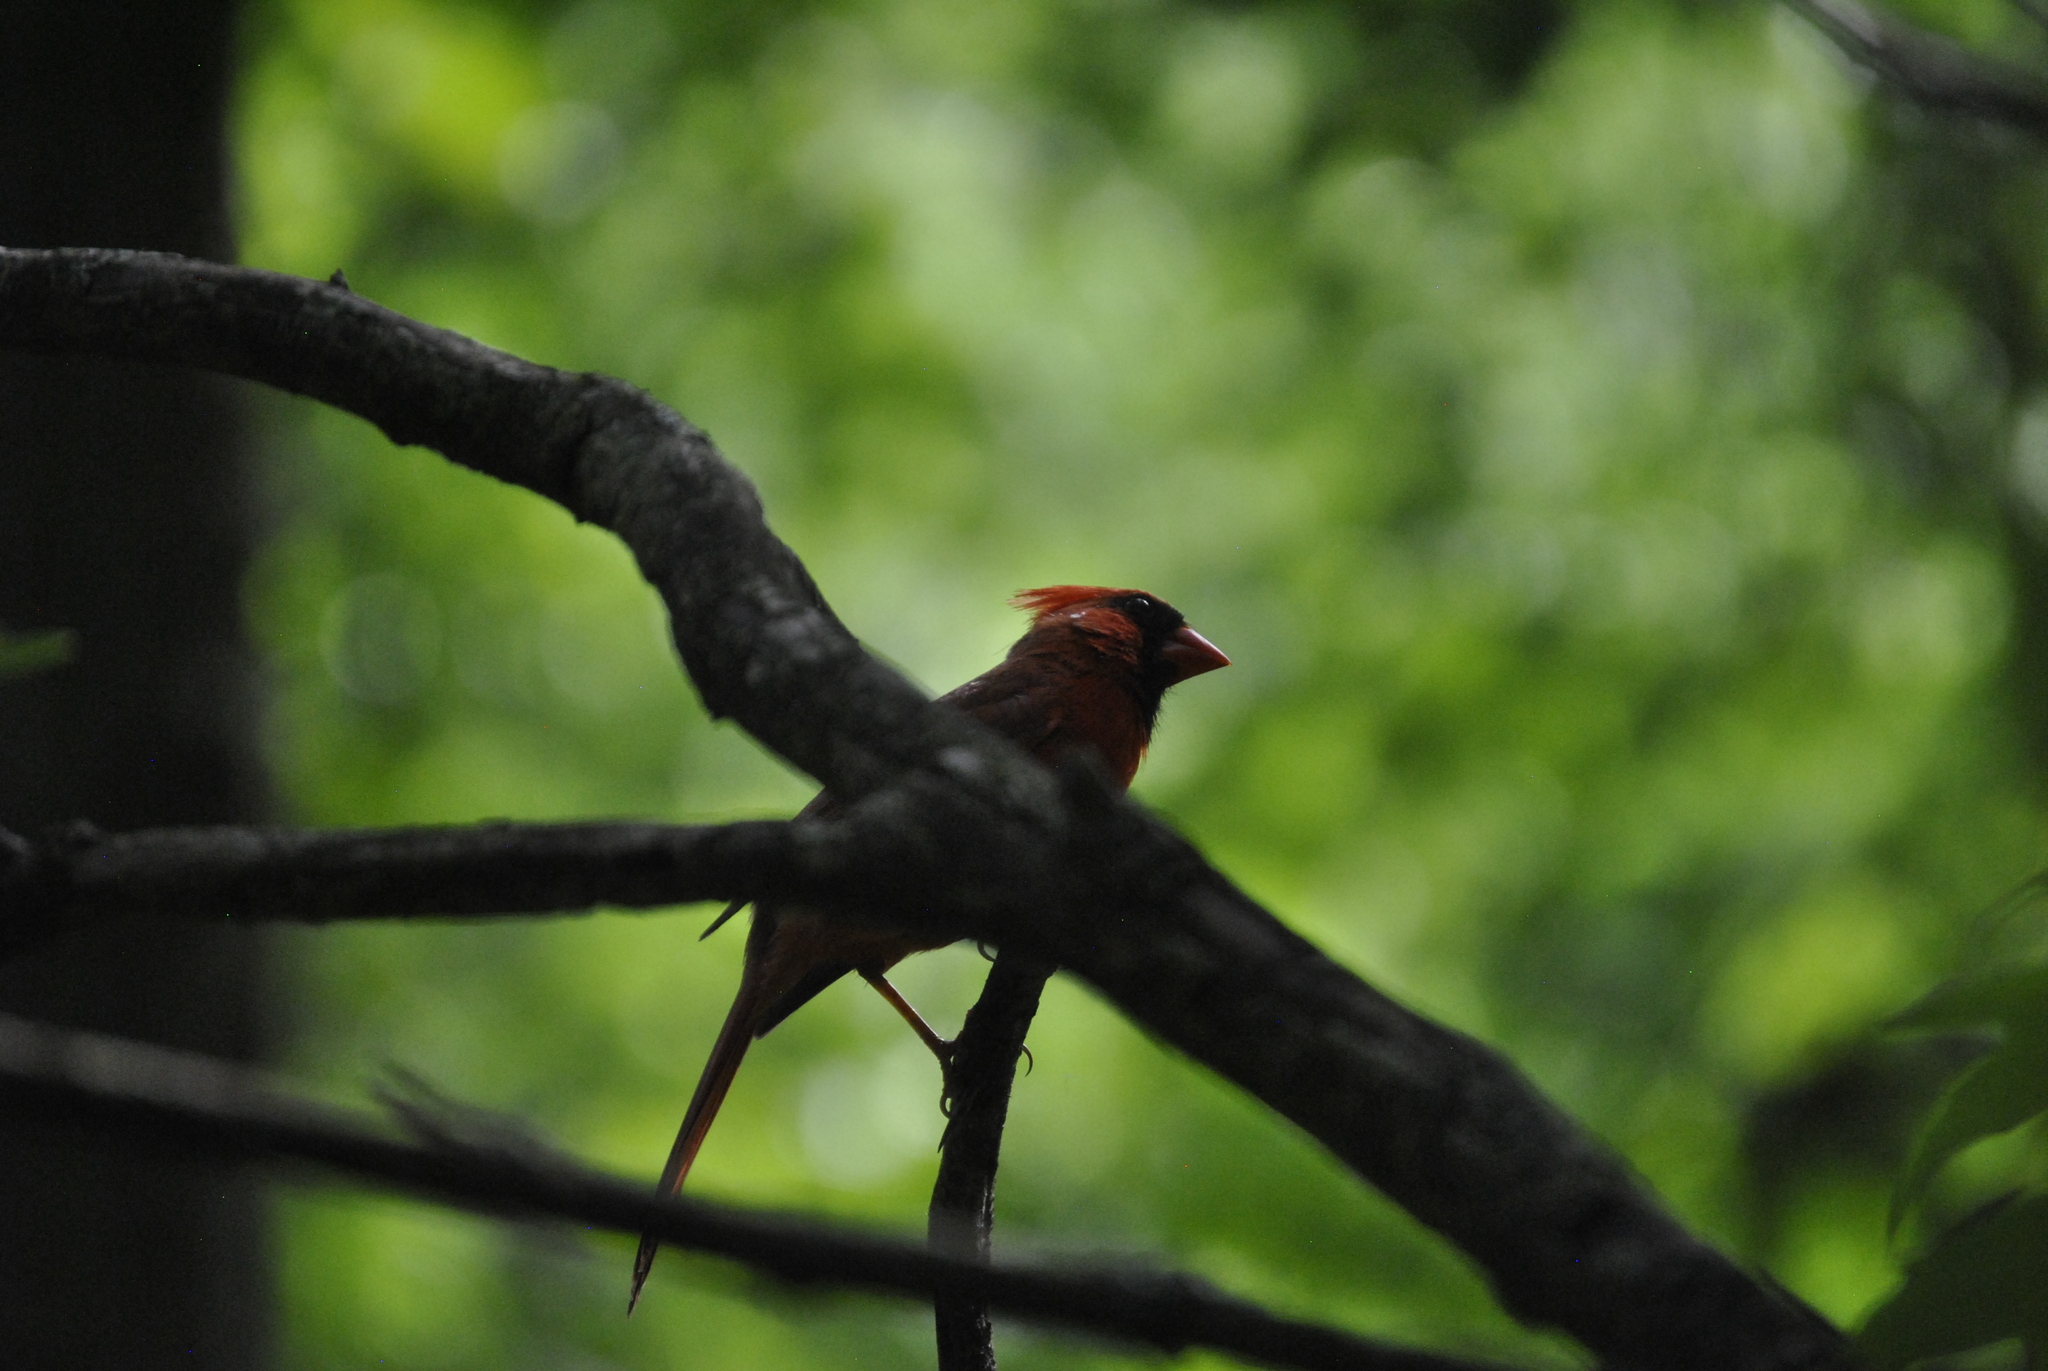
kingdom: Animalia
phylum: Chordata
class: Aves
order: Passeriformes
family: Cardinalidae
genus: Cardinalis
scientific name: Cardinalis cardinalis
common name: Northern cardinal
